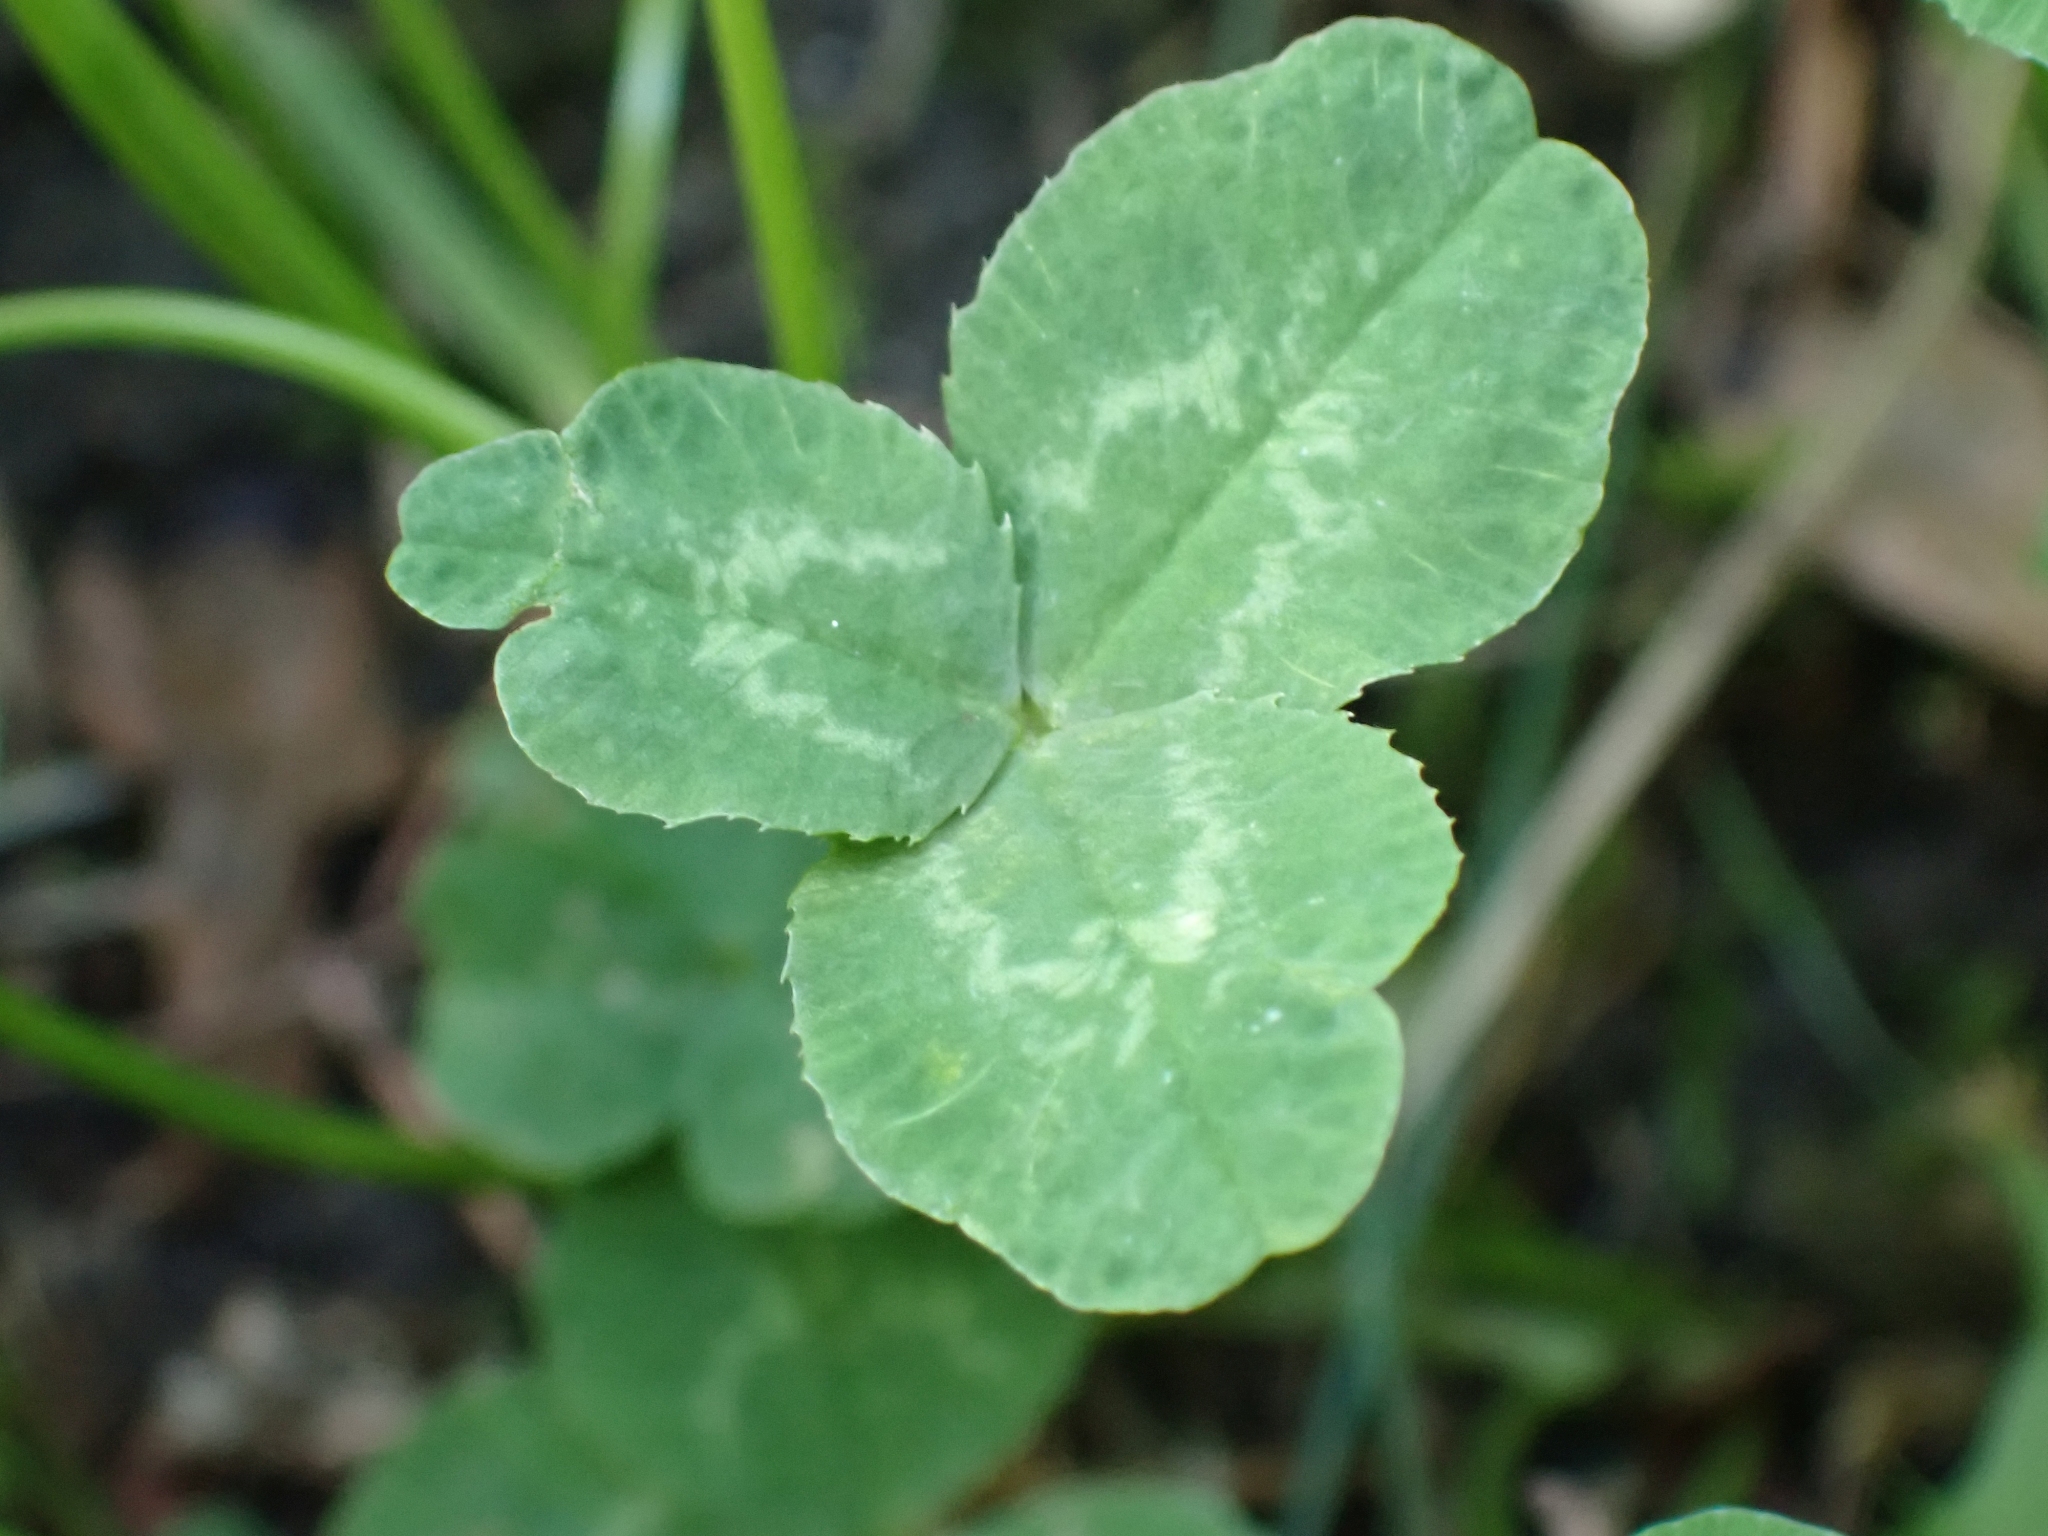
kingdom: Plantae
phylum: Tracheophyta
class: Magnoliopsida
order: Fabales
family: Fabaceae
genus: Trifolium
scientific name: Trifolium repens
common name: White clover
